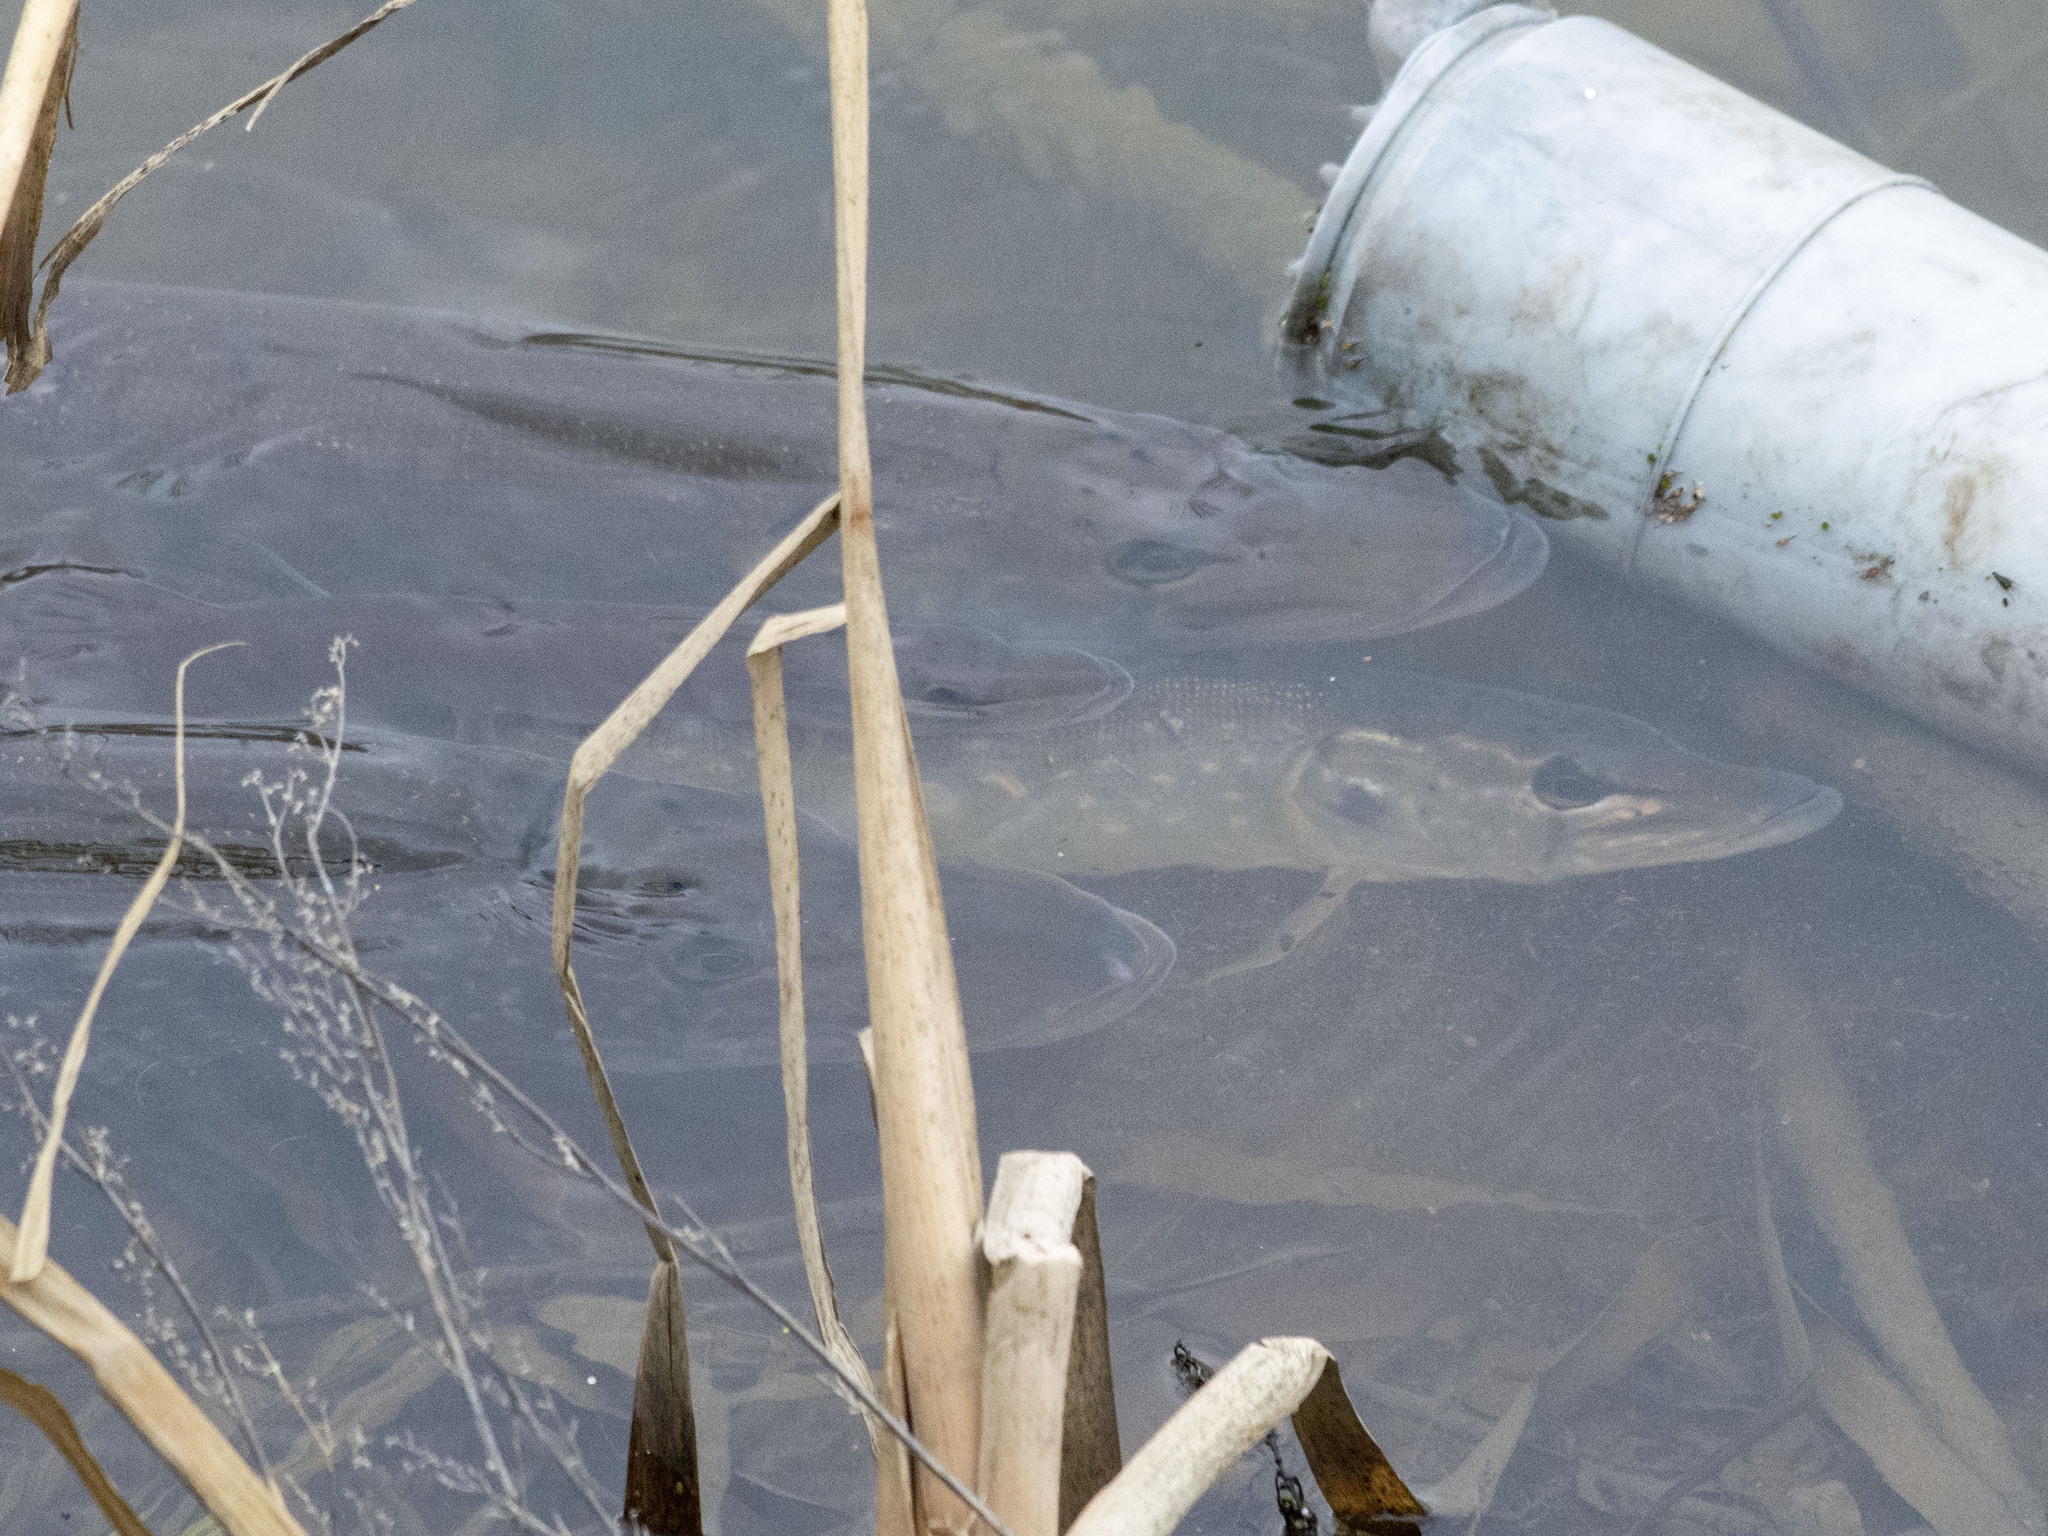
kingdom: Animalia
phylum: Chordata
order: Esociformes
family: Esocidae
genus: Esox
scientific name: Esox lucius
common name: Northern pike
